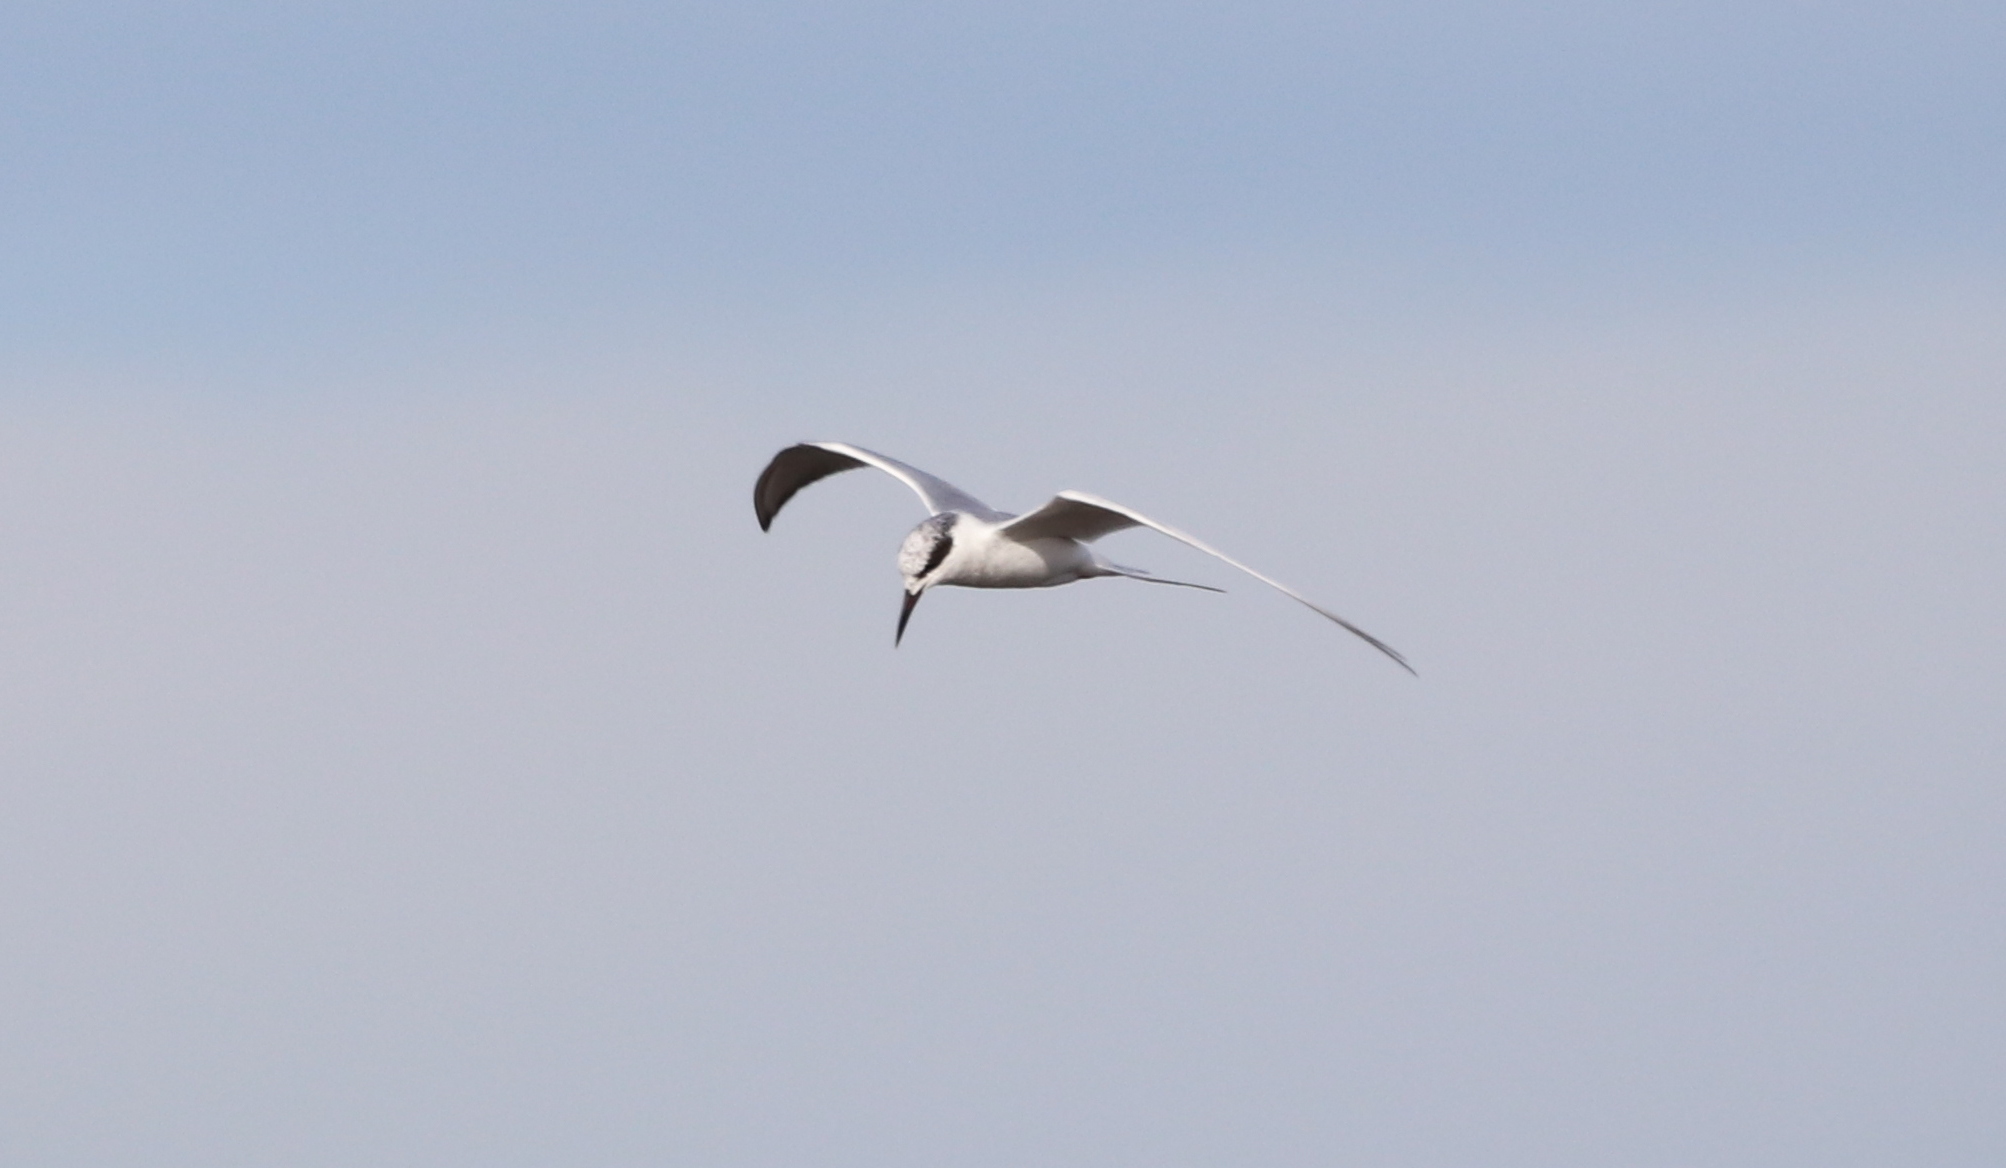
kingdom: Animalia
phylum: Chordata
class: Aves
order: Charadriiformes
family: Laridae
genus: Sterna
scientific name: Sterna forsteri
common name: Forster's tern
